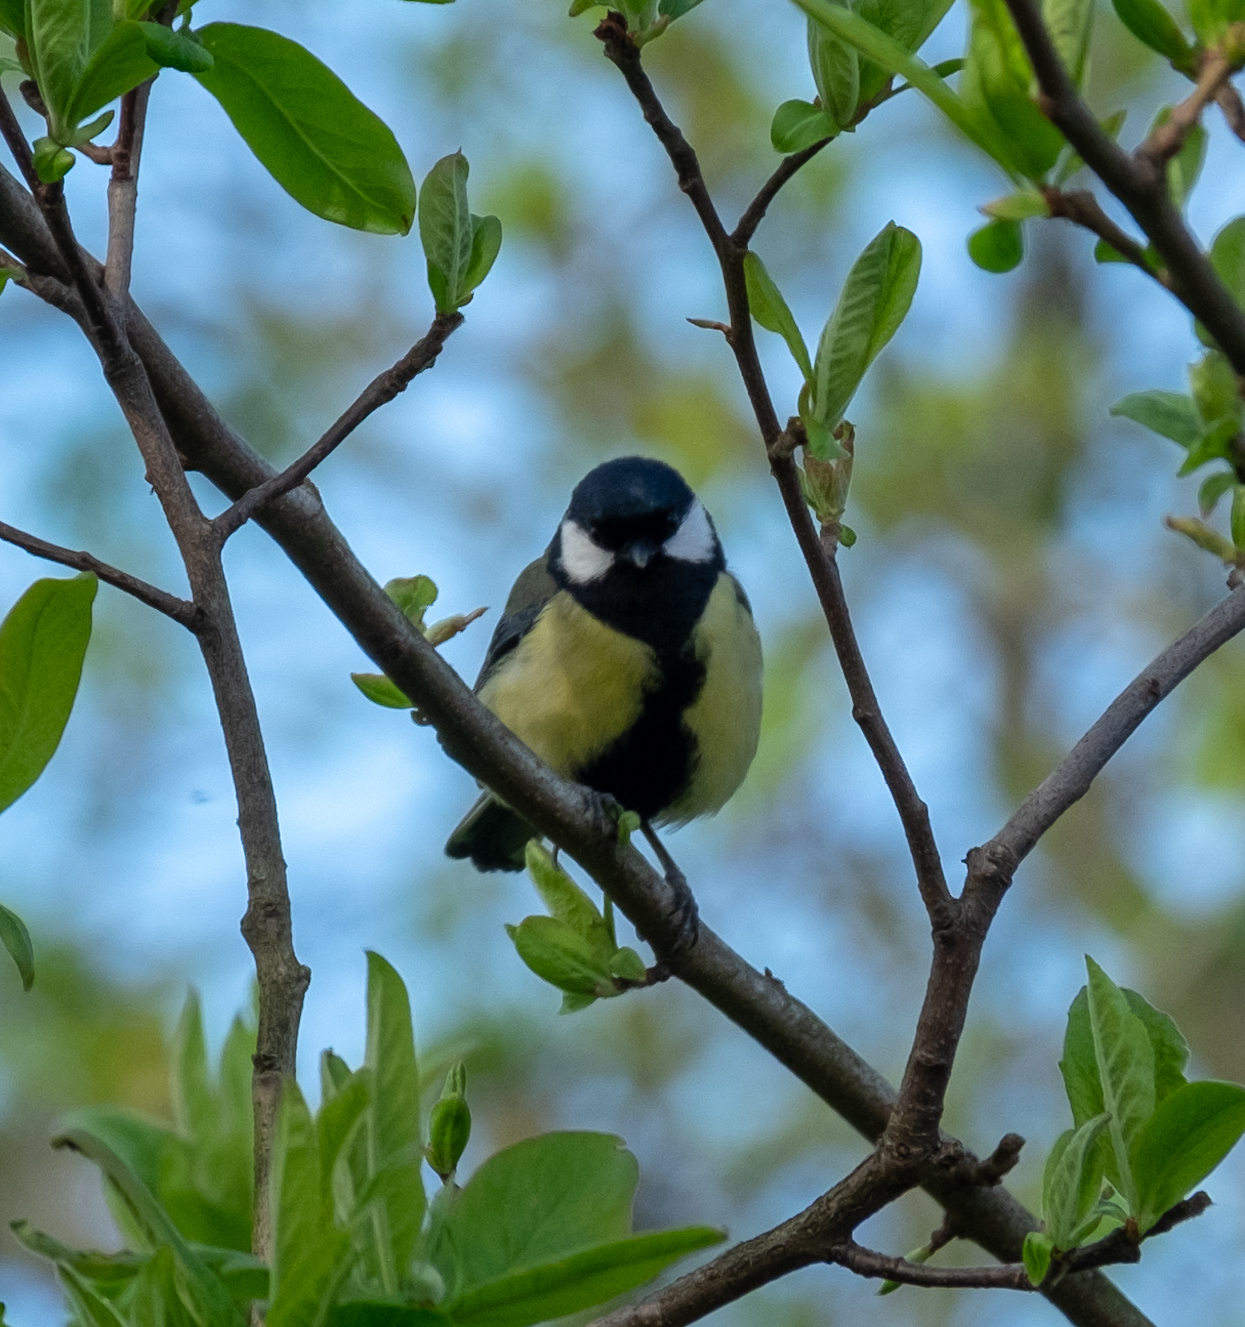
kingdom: Animalia
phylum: Chordata
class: Aves
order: Passeriformes
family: Paridae
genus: Parus
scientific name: Parus major
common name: Great tit
